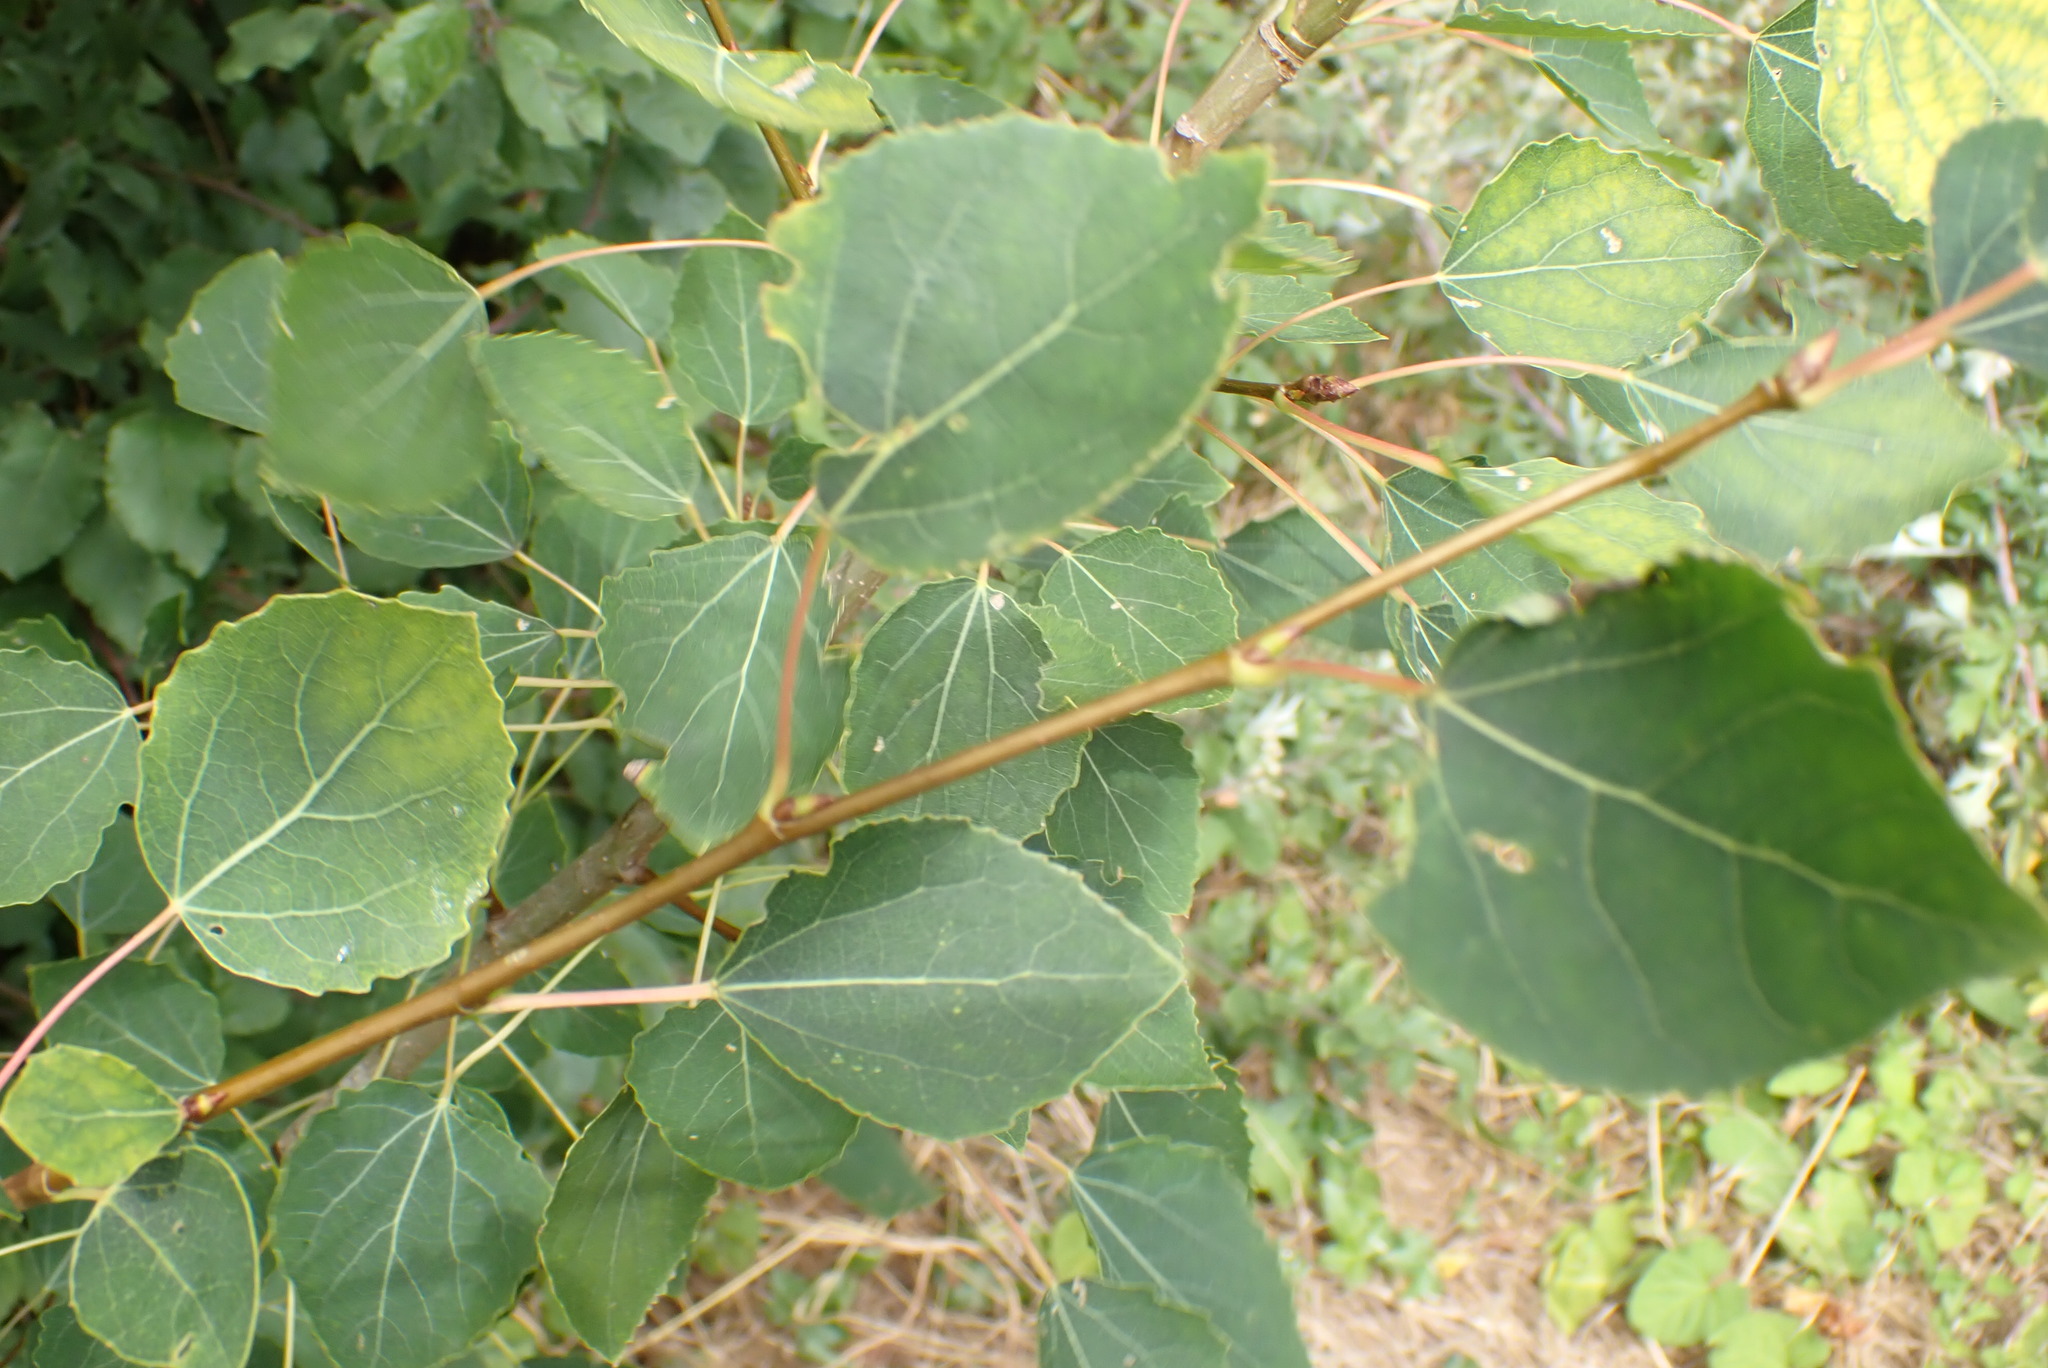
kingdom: Plantae
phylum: Tracheophyta
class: Magnoliopsida
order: Malpighiales
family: Salicaceae
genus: Populus
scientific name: Populus tremula
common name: European aspen
